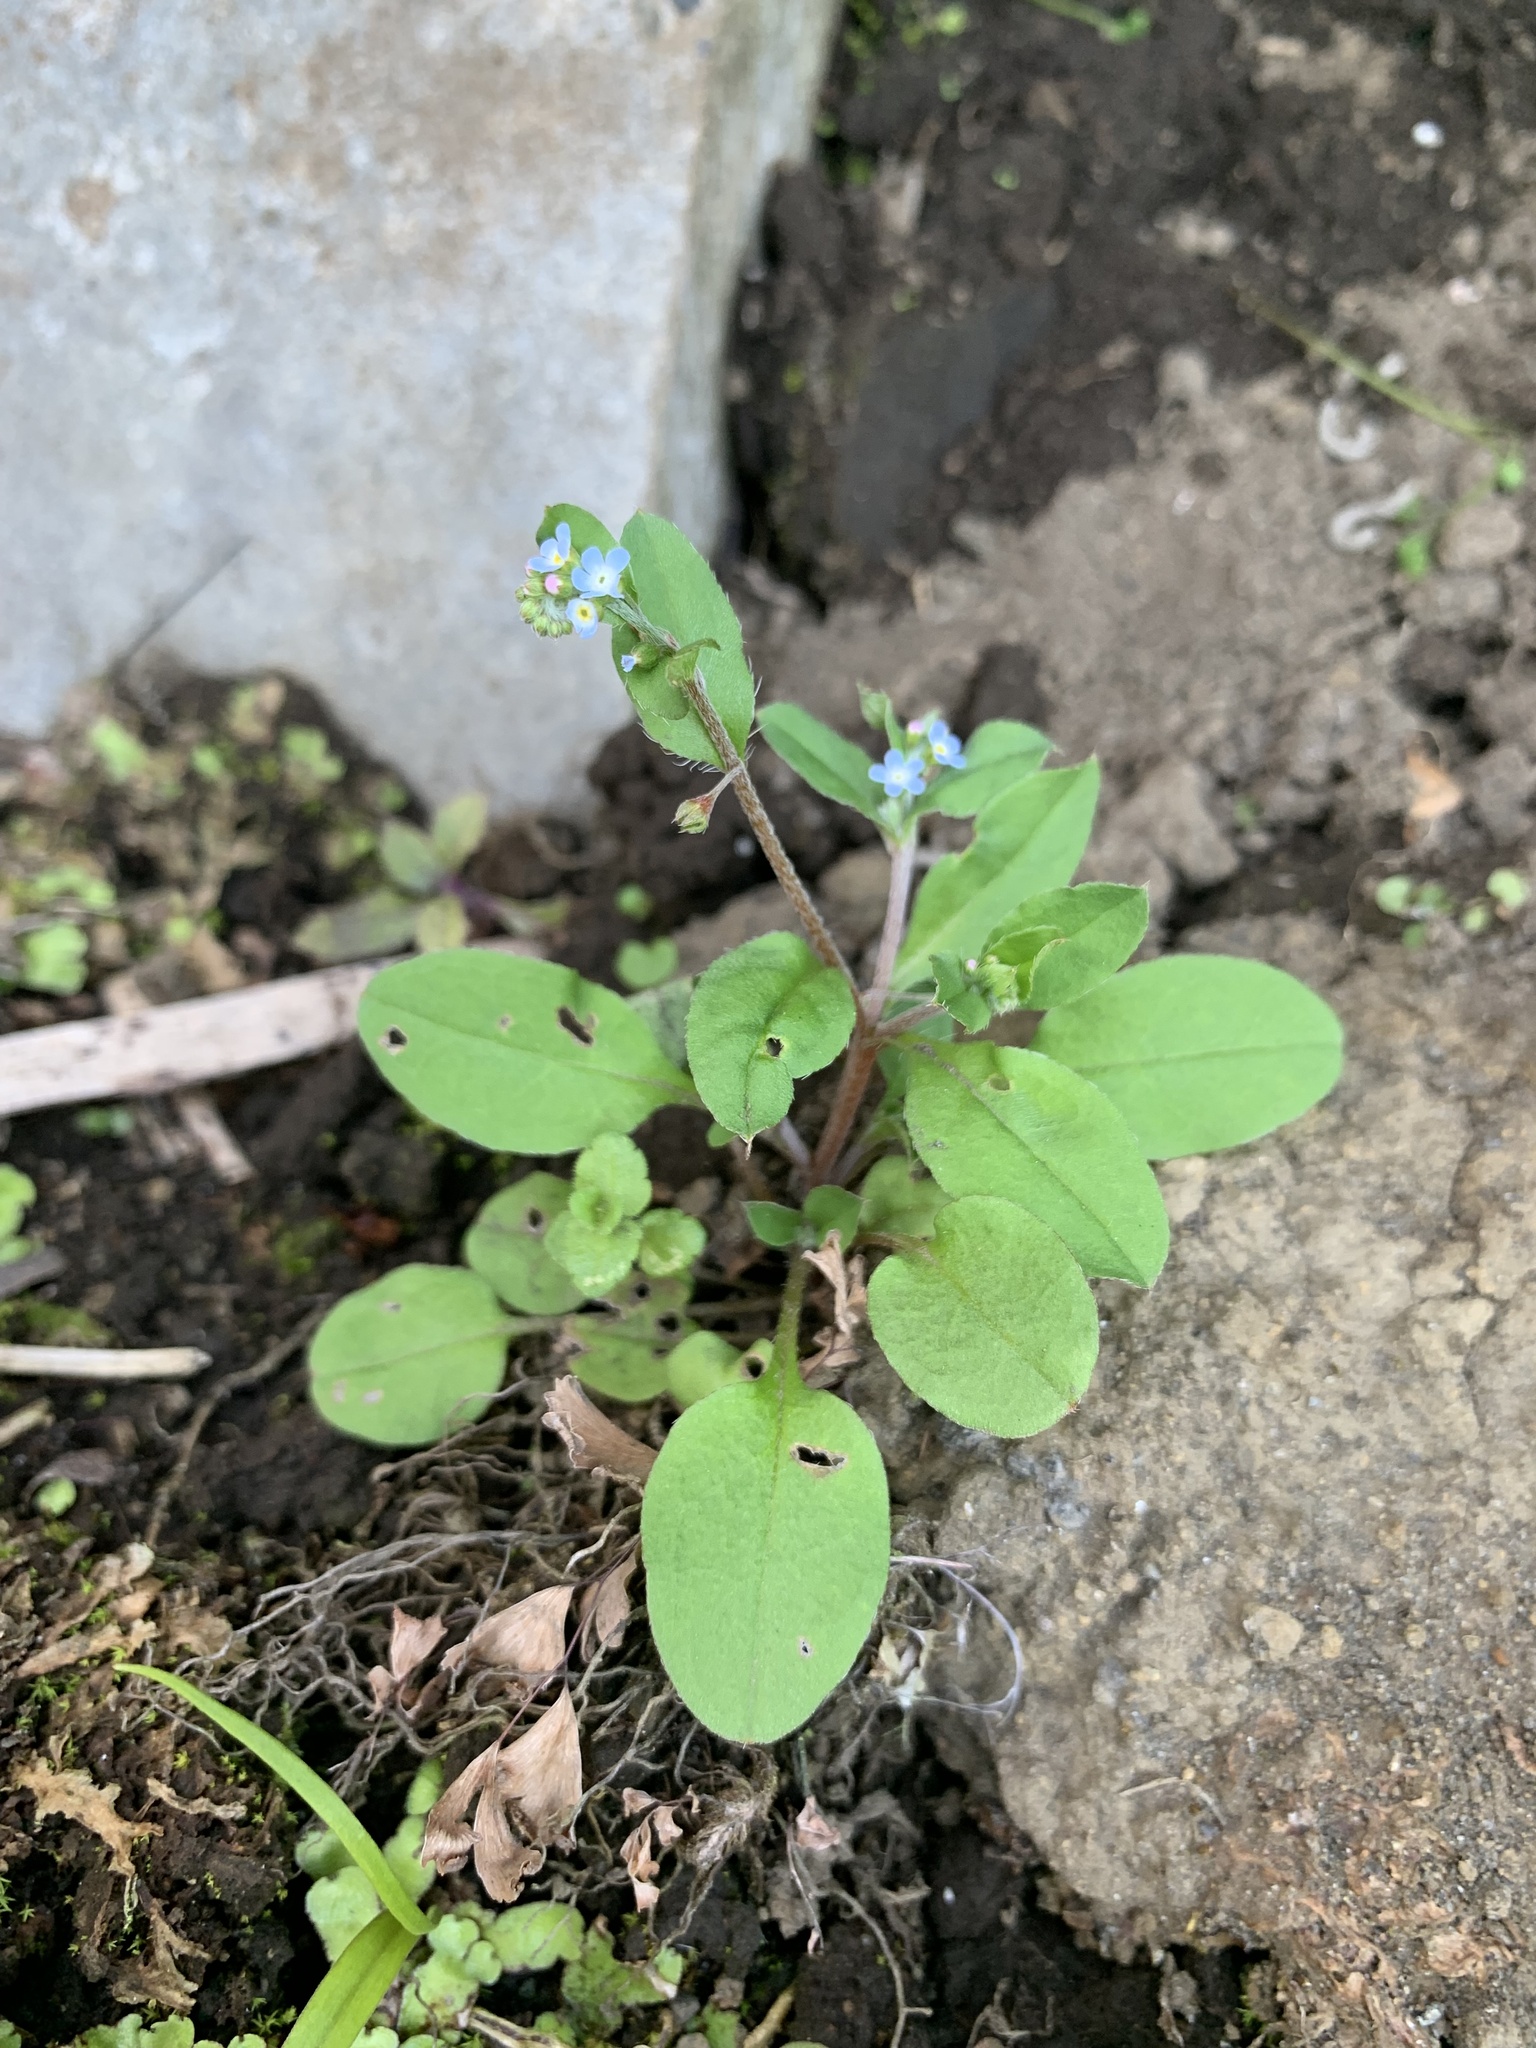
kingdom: Plantae
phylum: Tracheophyta
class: Magnoliopsida
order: Boraginales
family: Boraginaceae
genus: Trigonotis
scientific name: Trigonotis peduncularis
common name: Cucumber herb
